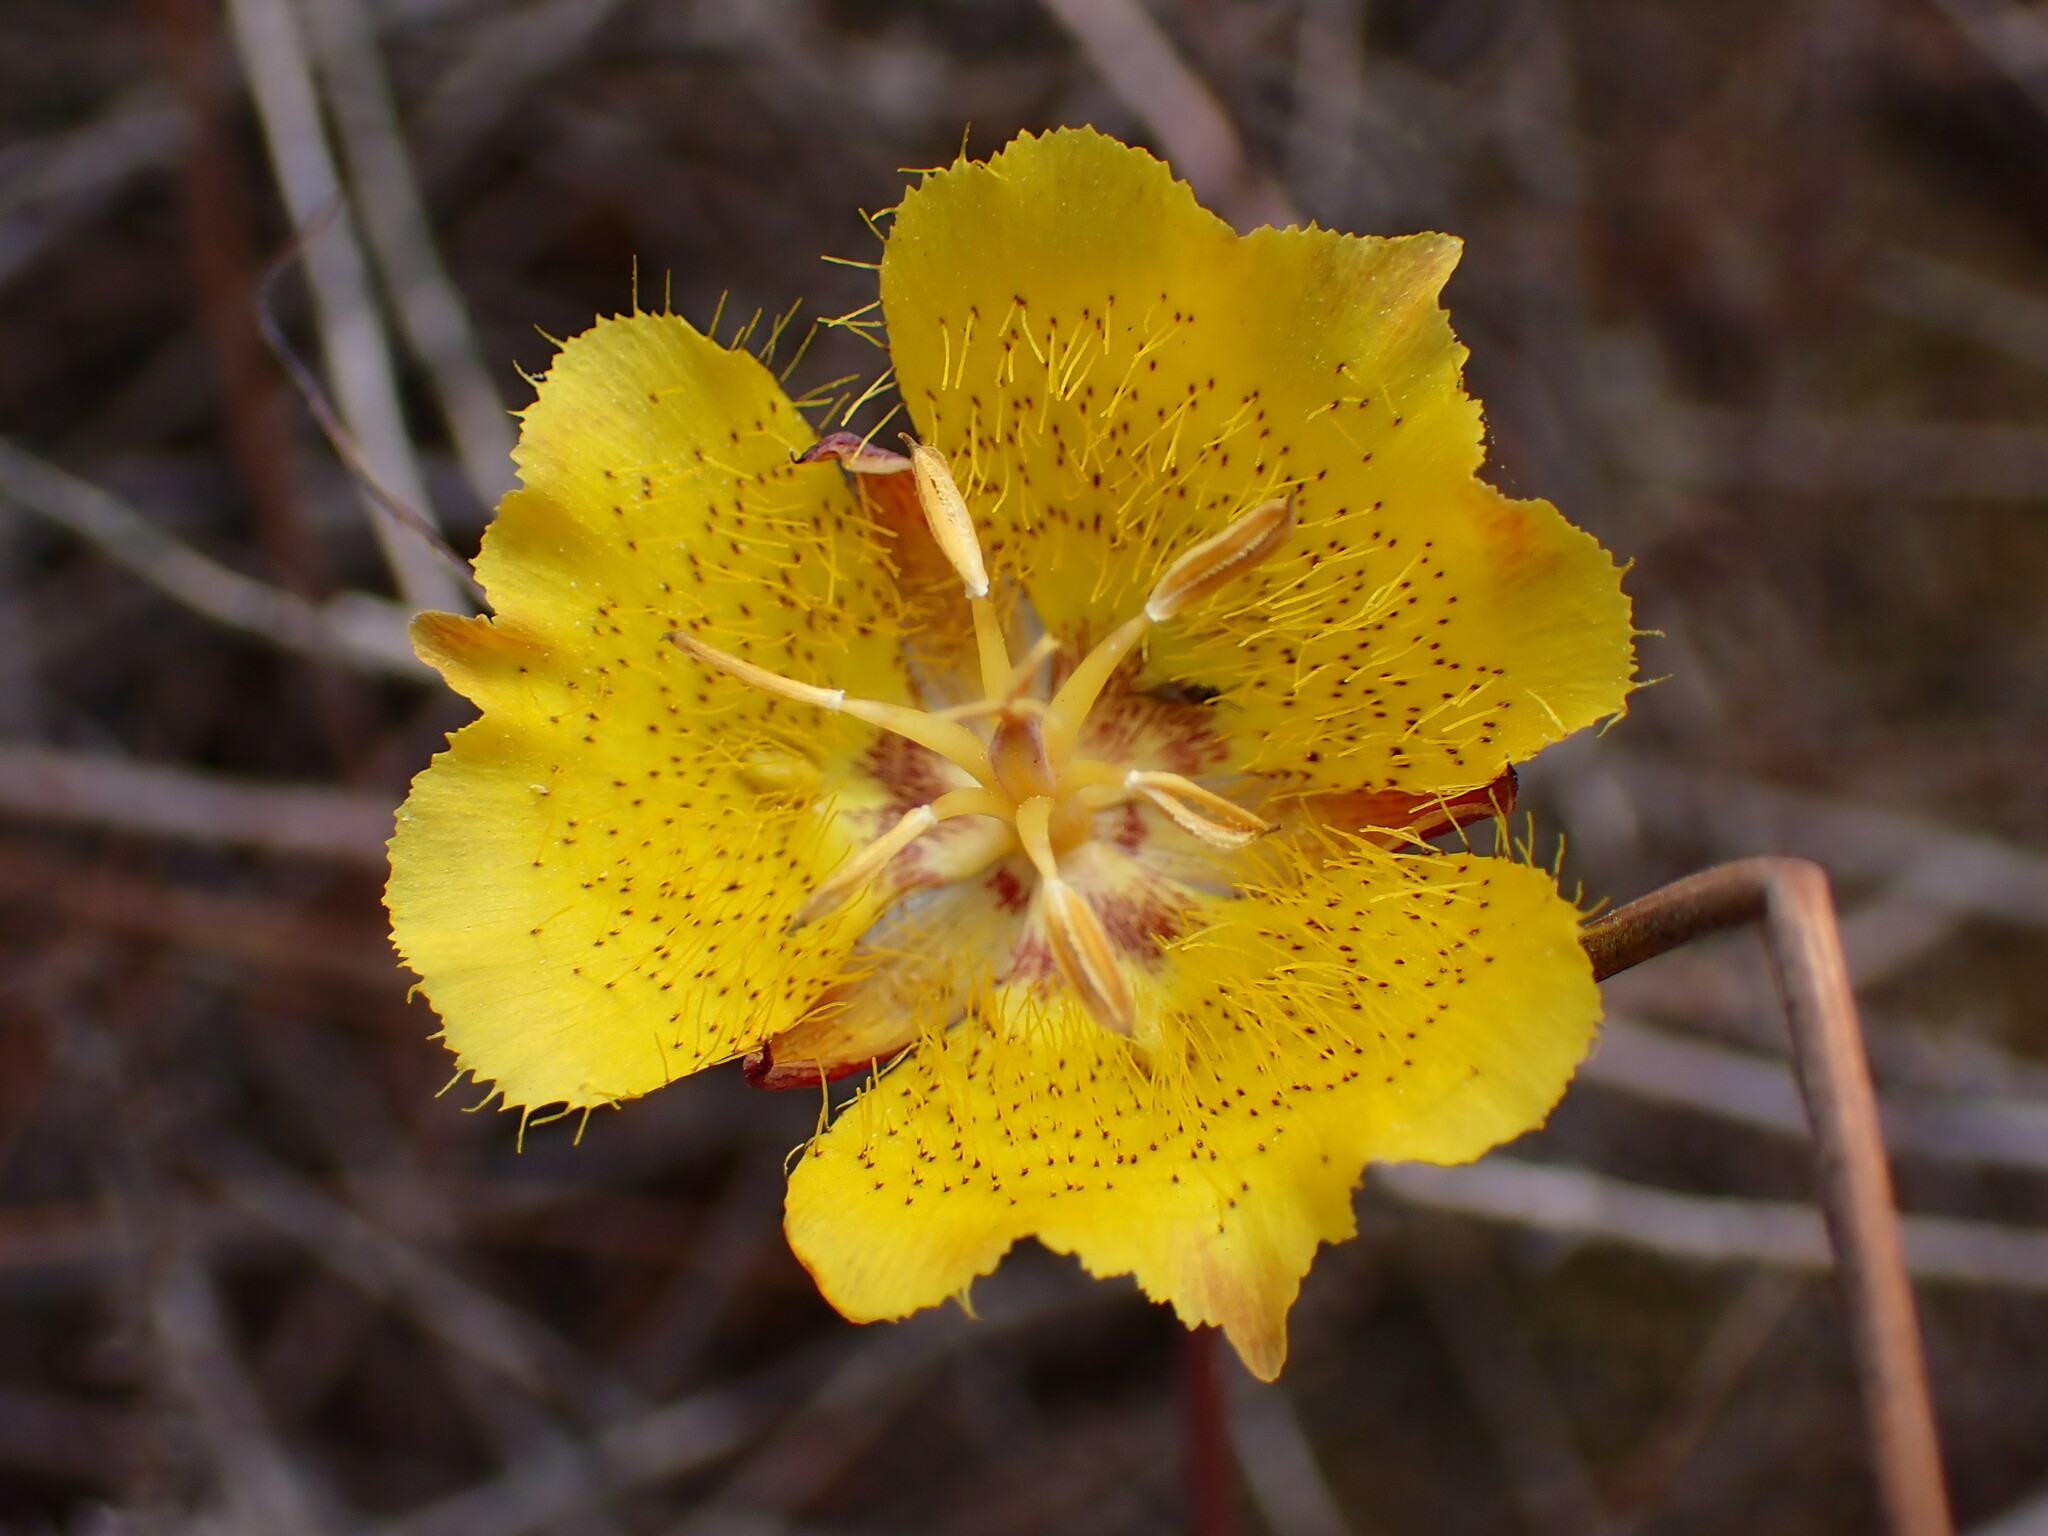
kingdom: Plantae
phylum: Tracheophyta
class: Liliopsida
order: Liliales
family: Liliaceae
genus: Calochortus
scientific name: Calochortus weedii
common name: Weed's mariposa-lily
